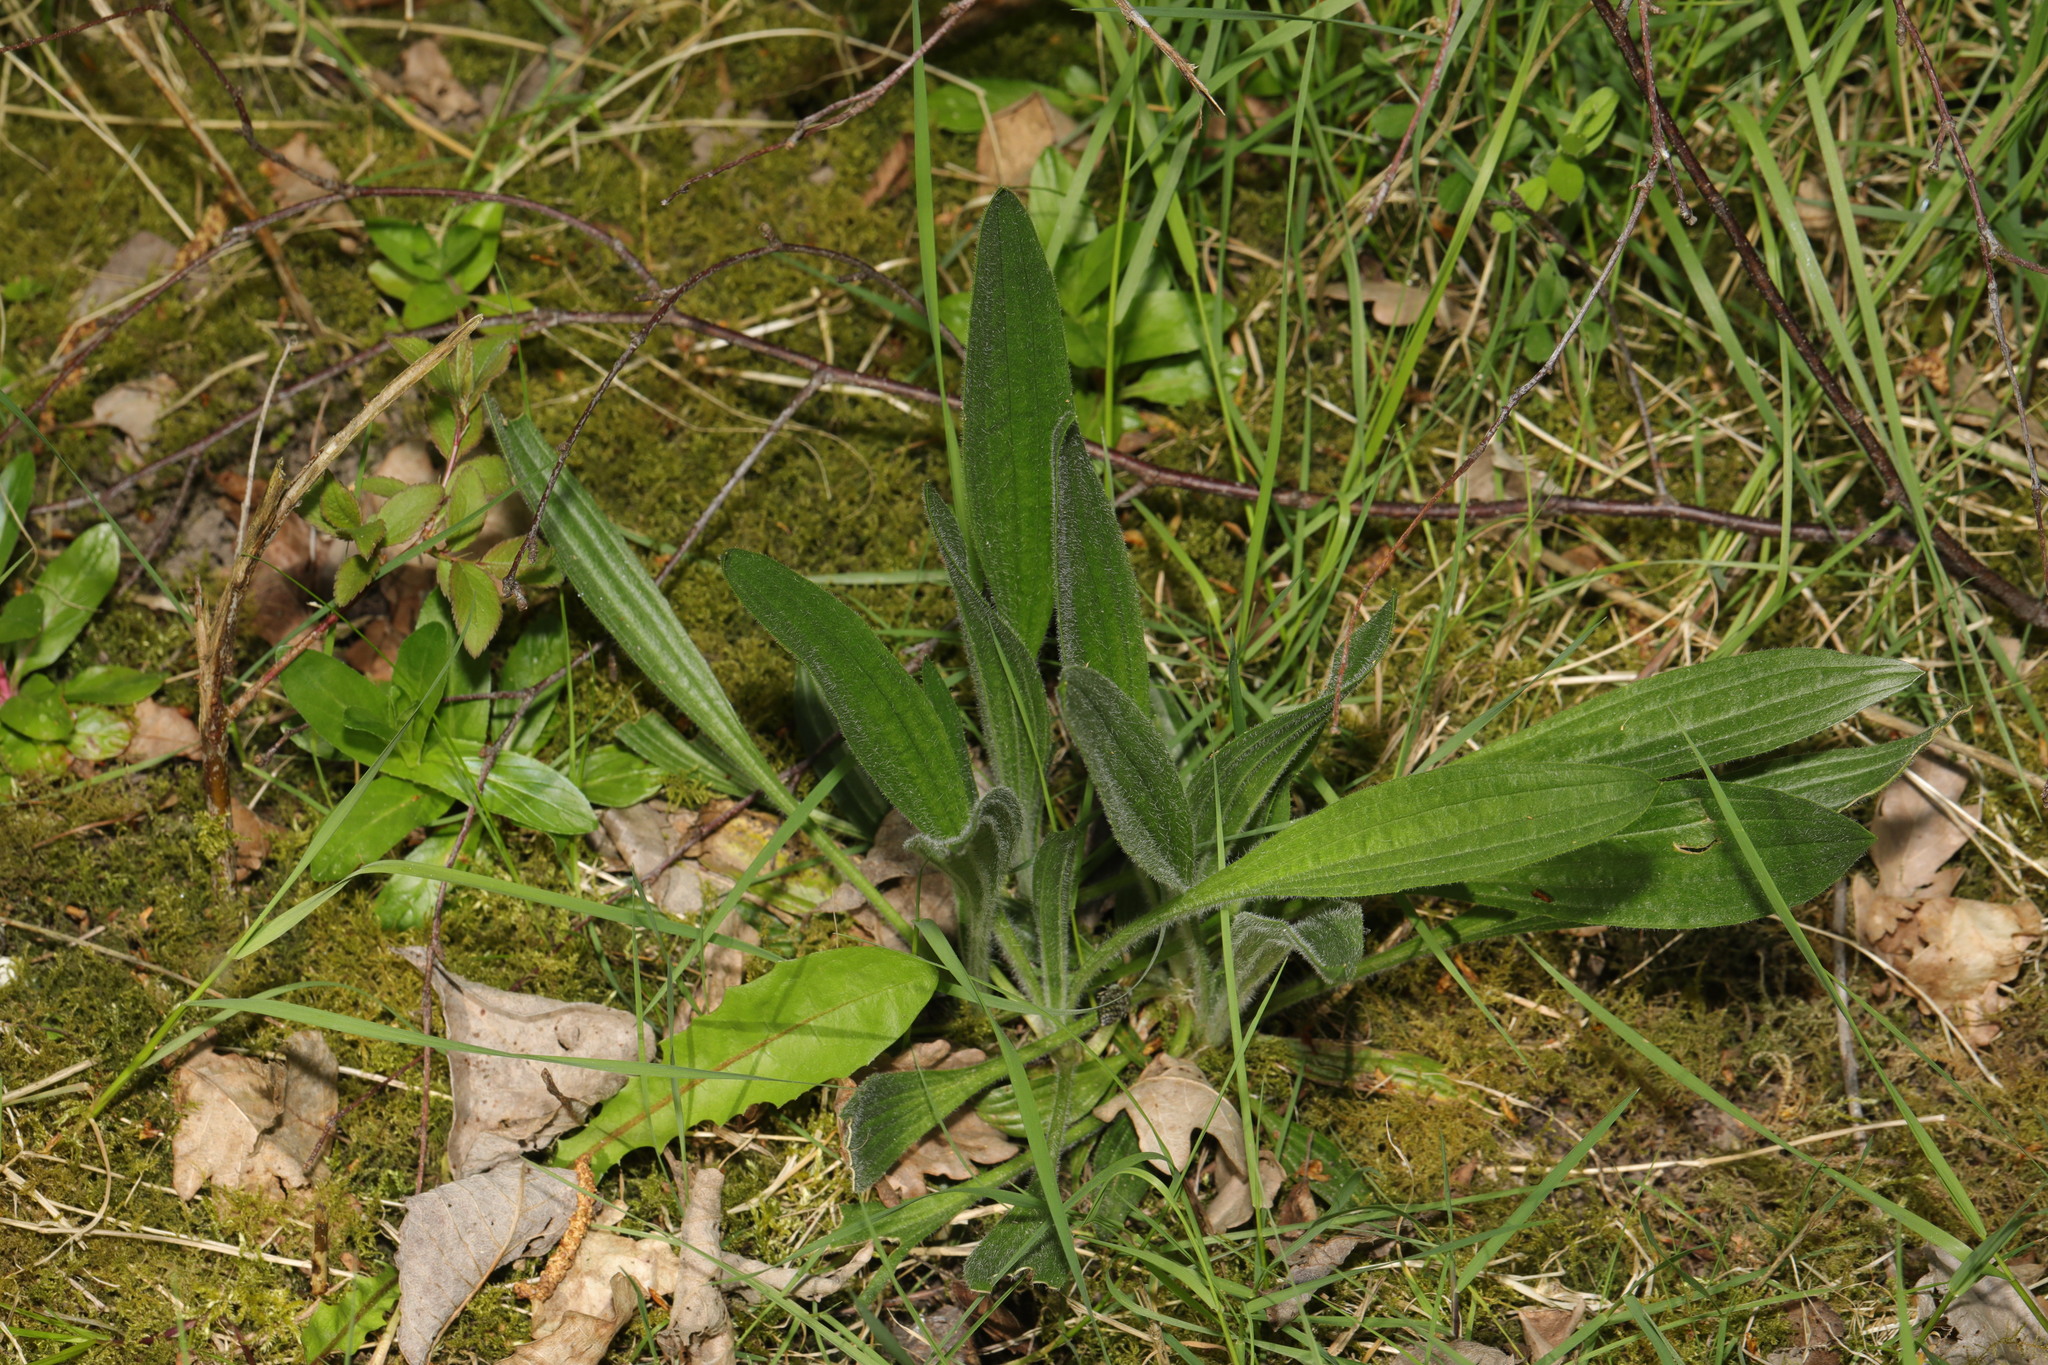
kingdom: Plantae
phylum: Tracheophyta
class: Magnoliopsida
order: Lamiales
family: Plantaginaceae
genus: Plantago
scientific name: Plantago lanceolata
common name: Ribwort plantain
